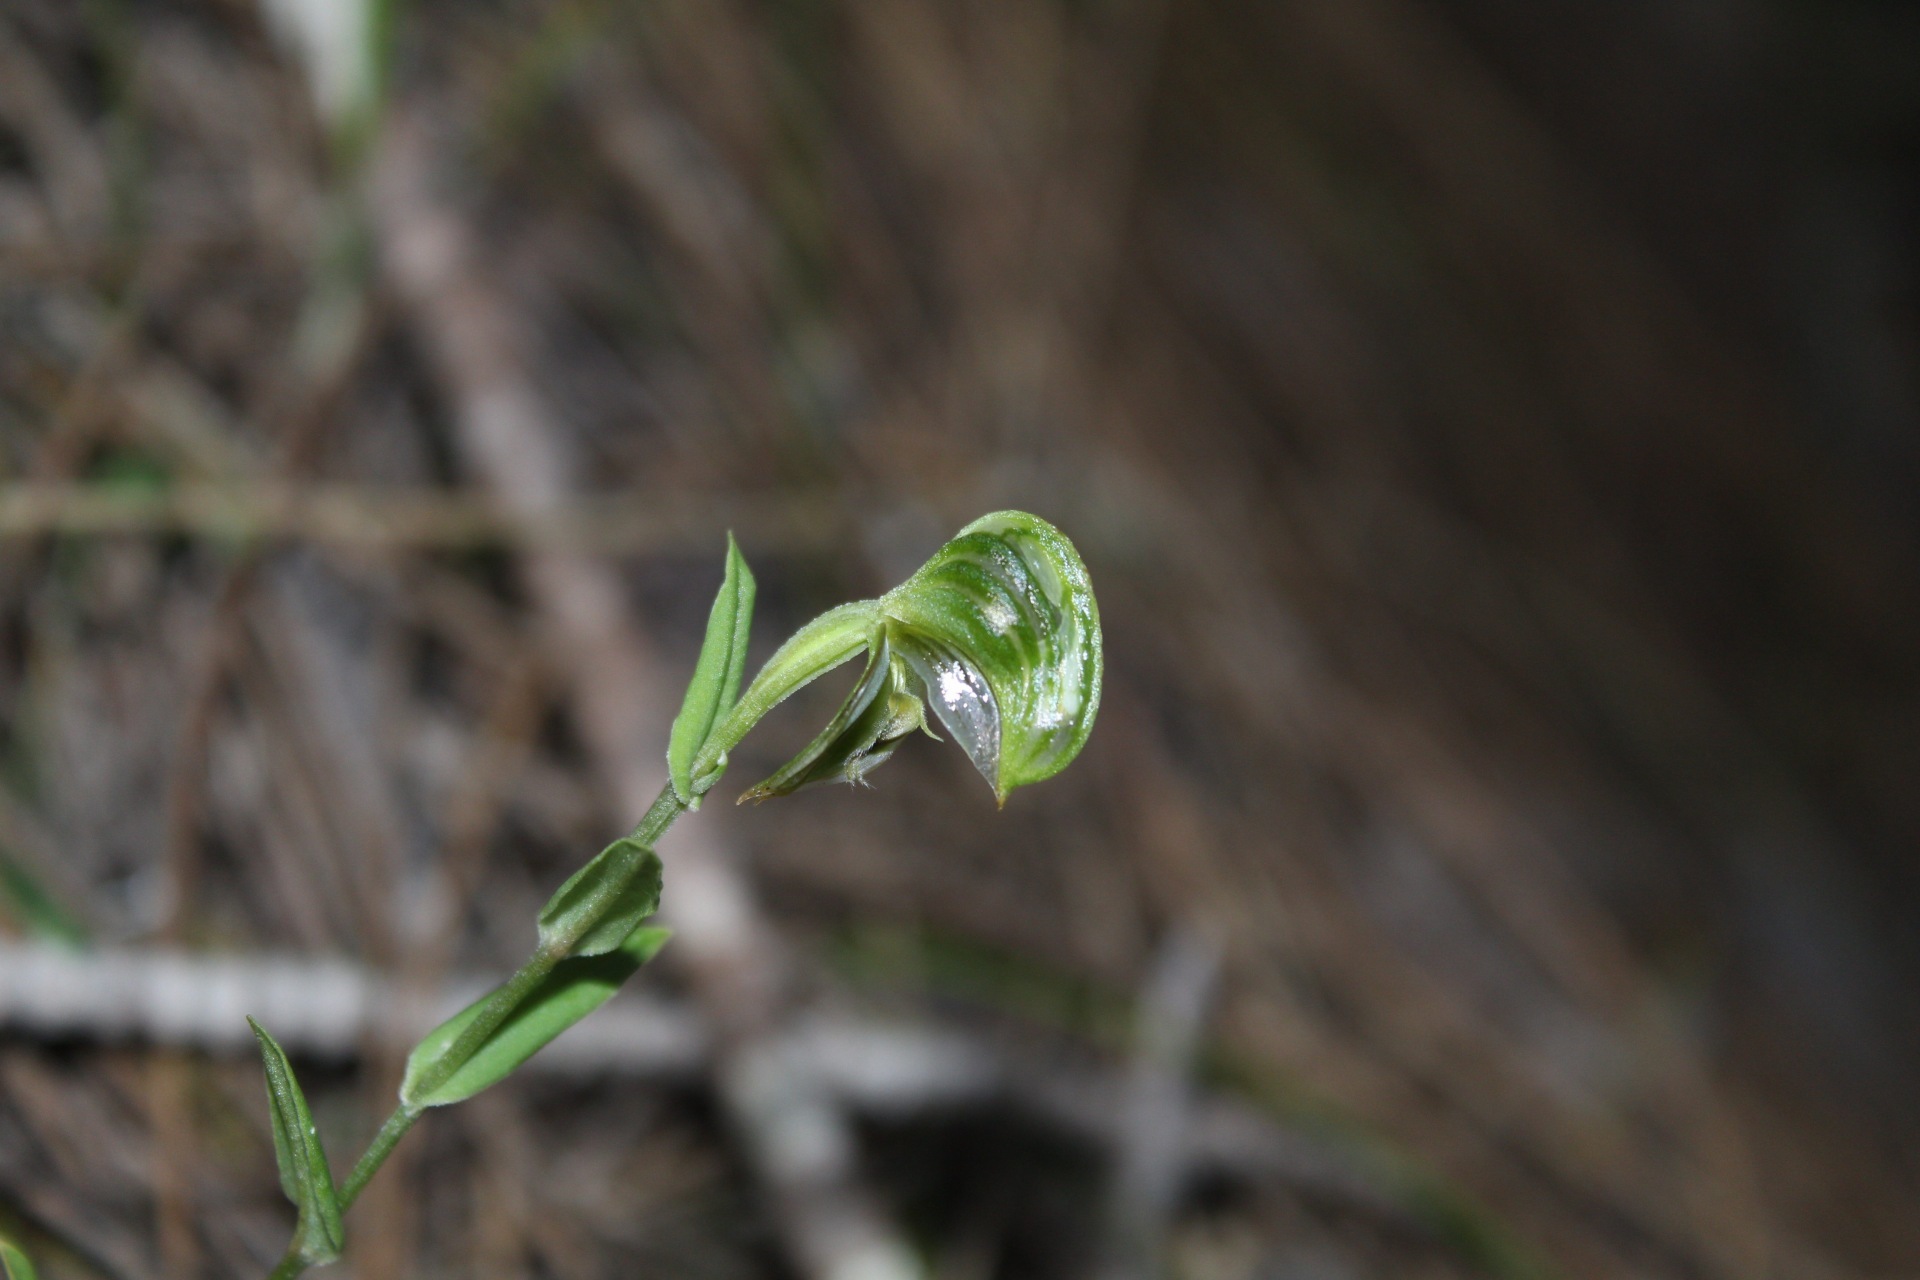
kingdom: Plantae
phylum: Tracheophyta
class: Liliopsida
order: Asparagales
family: Orchidaceae
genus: Pterostylis
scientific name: Pterostylis vittata
